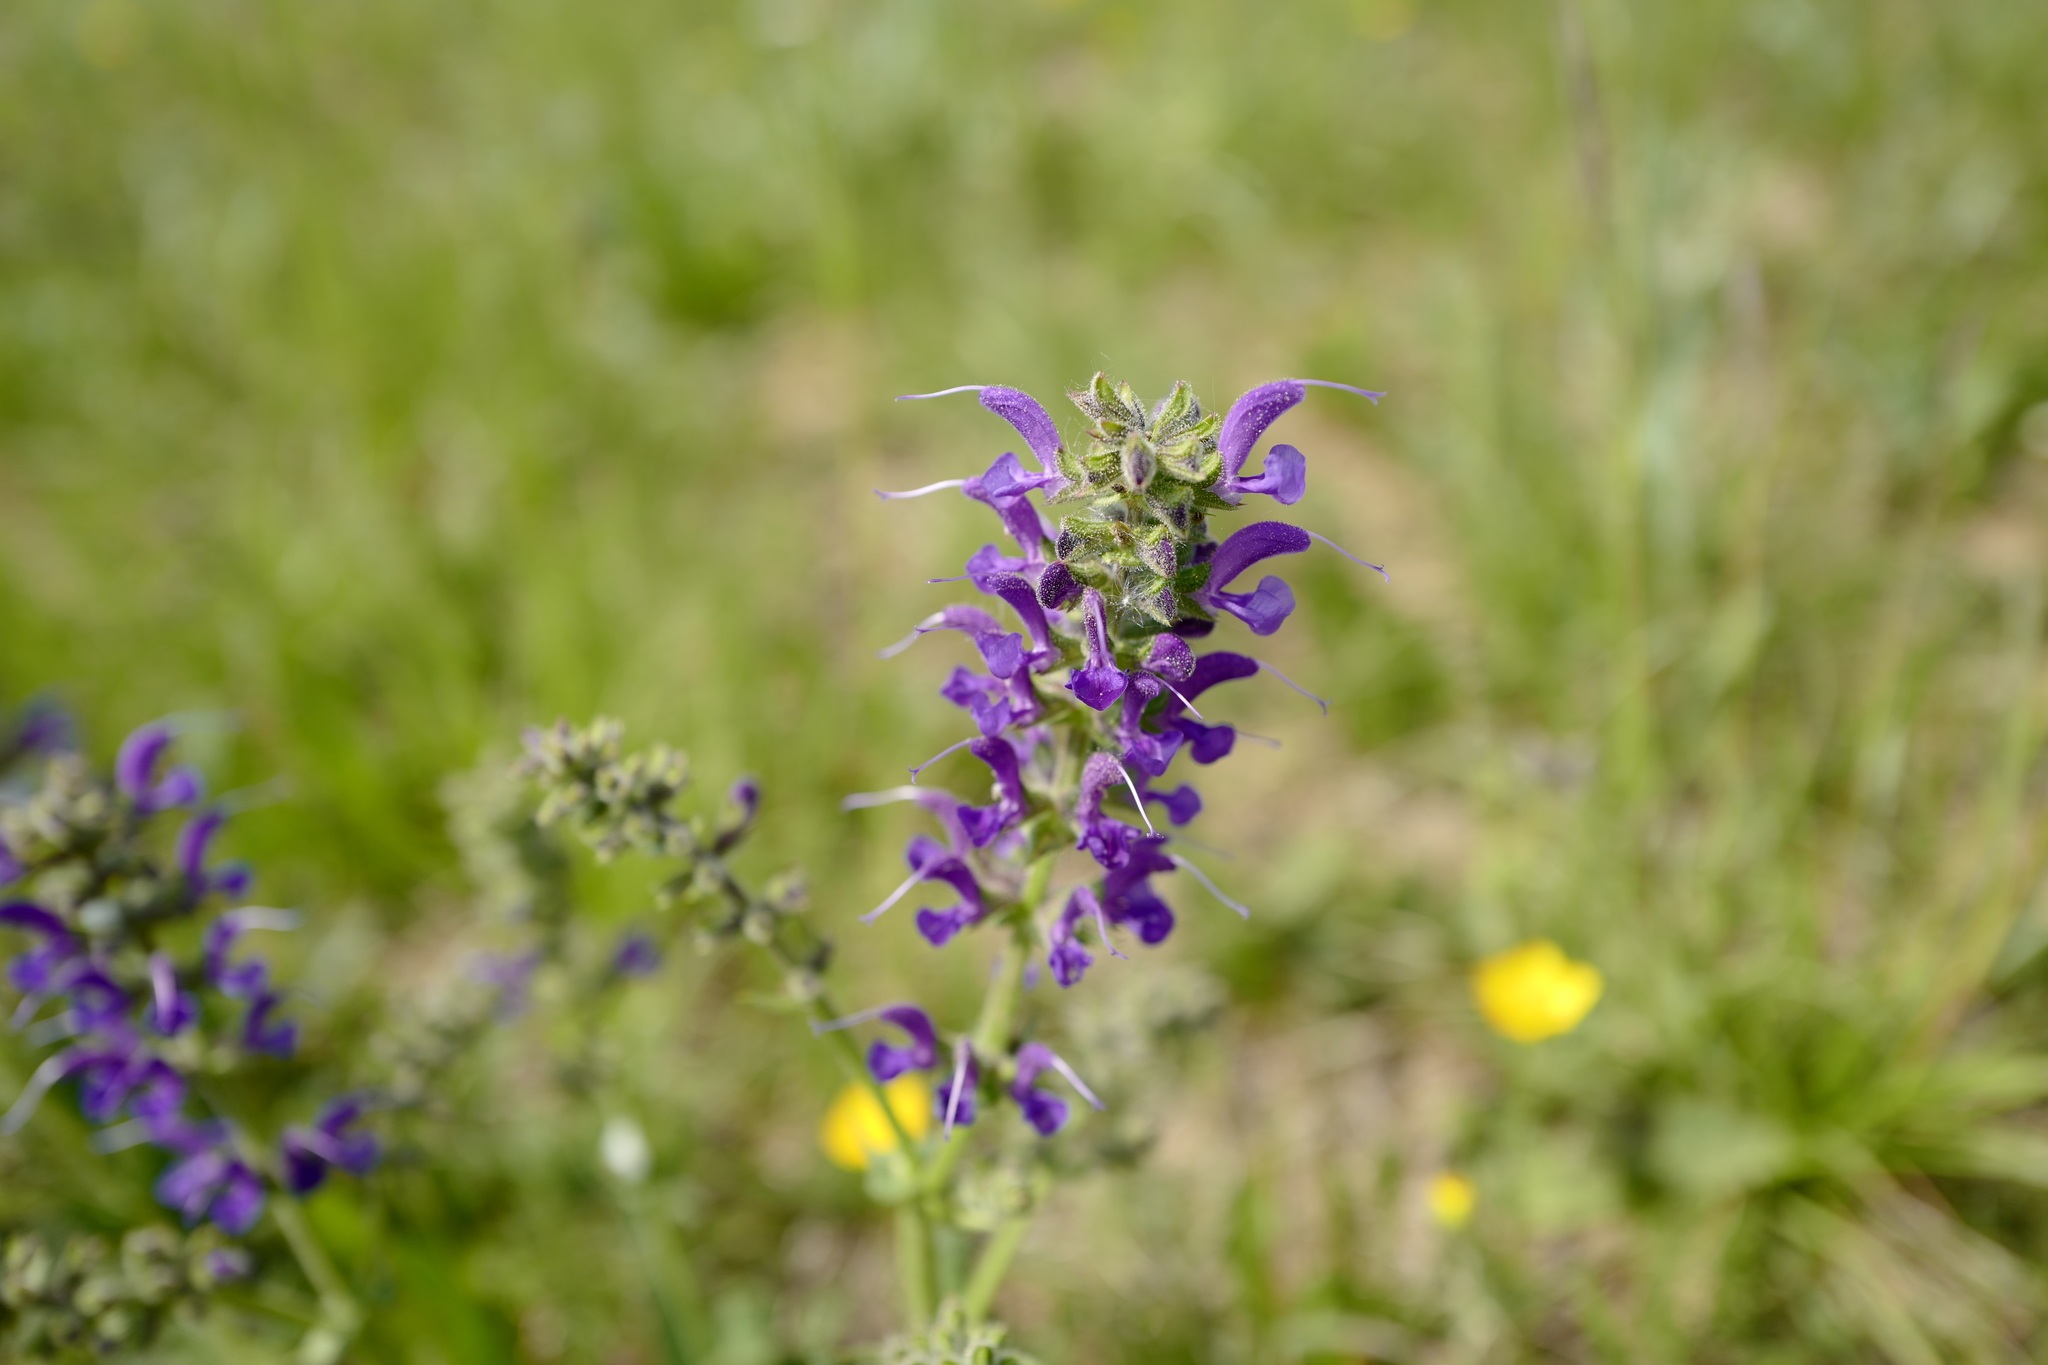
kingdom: Plantae
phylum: Tracheophyta
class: Magnoliopsida
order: Lamiales
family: Lamiaceae
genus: Salvia
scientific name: Salvia pratensis
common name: Meadow sage
